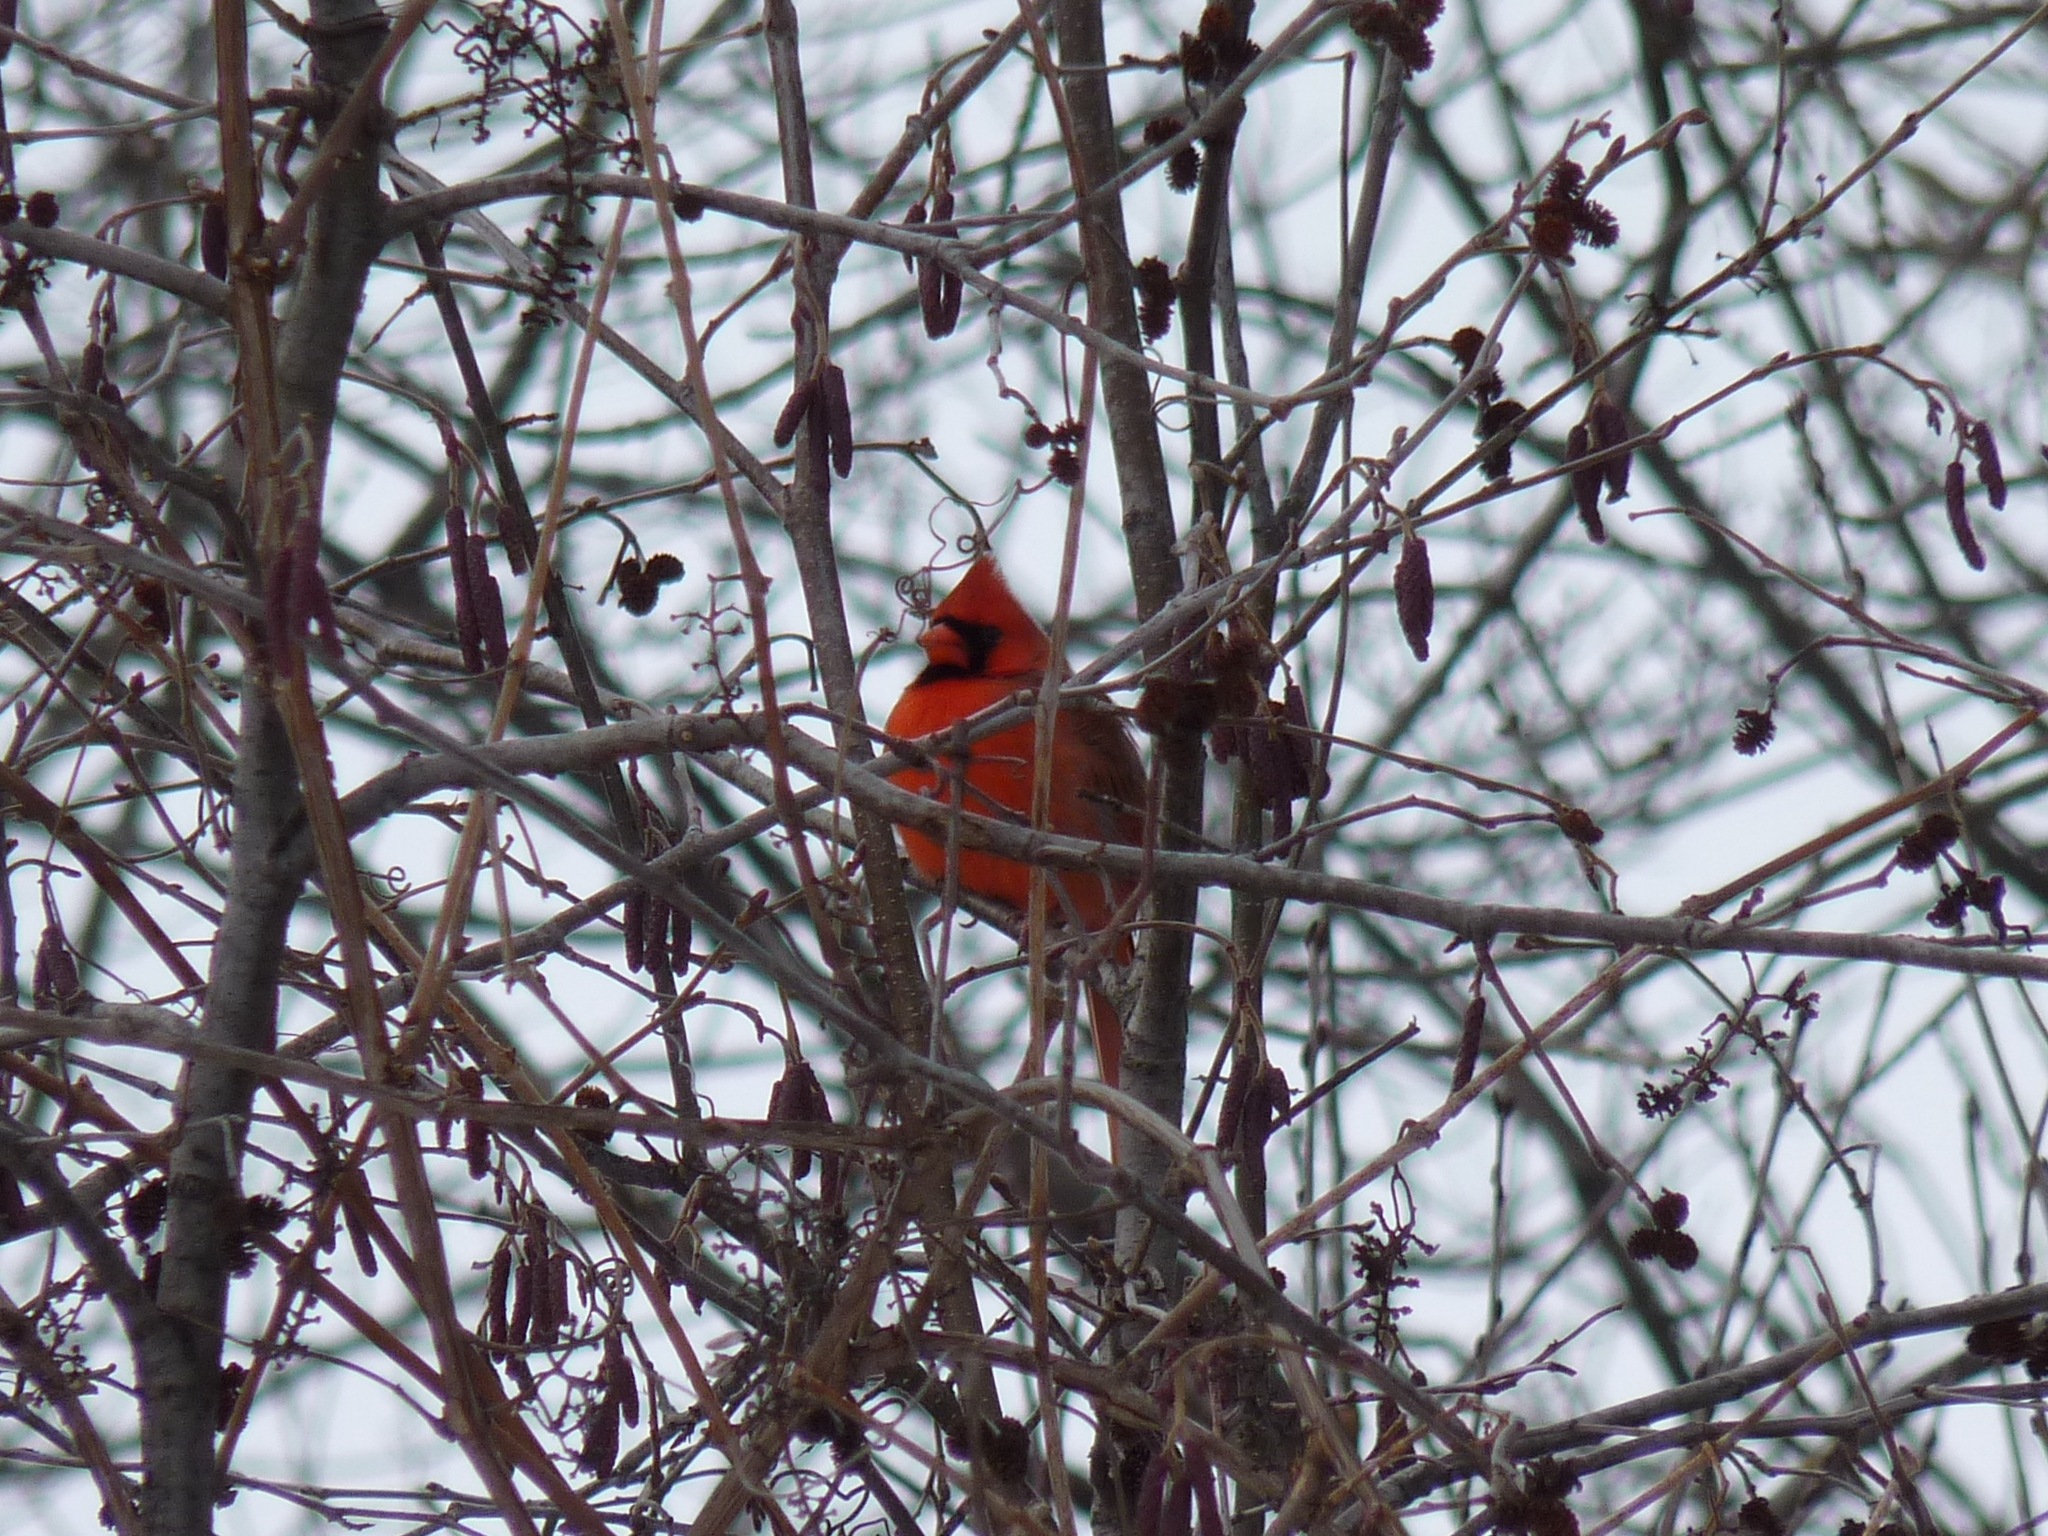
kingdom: Animalia
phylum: Chordata
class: Aves
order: Passeriformes
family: Cardinalidae
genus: Cardinalis
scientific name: Cardinalis cardinalis
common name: Northern cardinal
